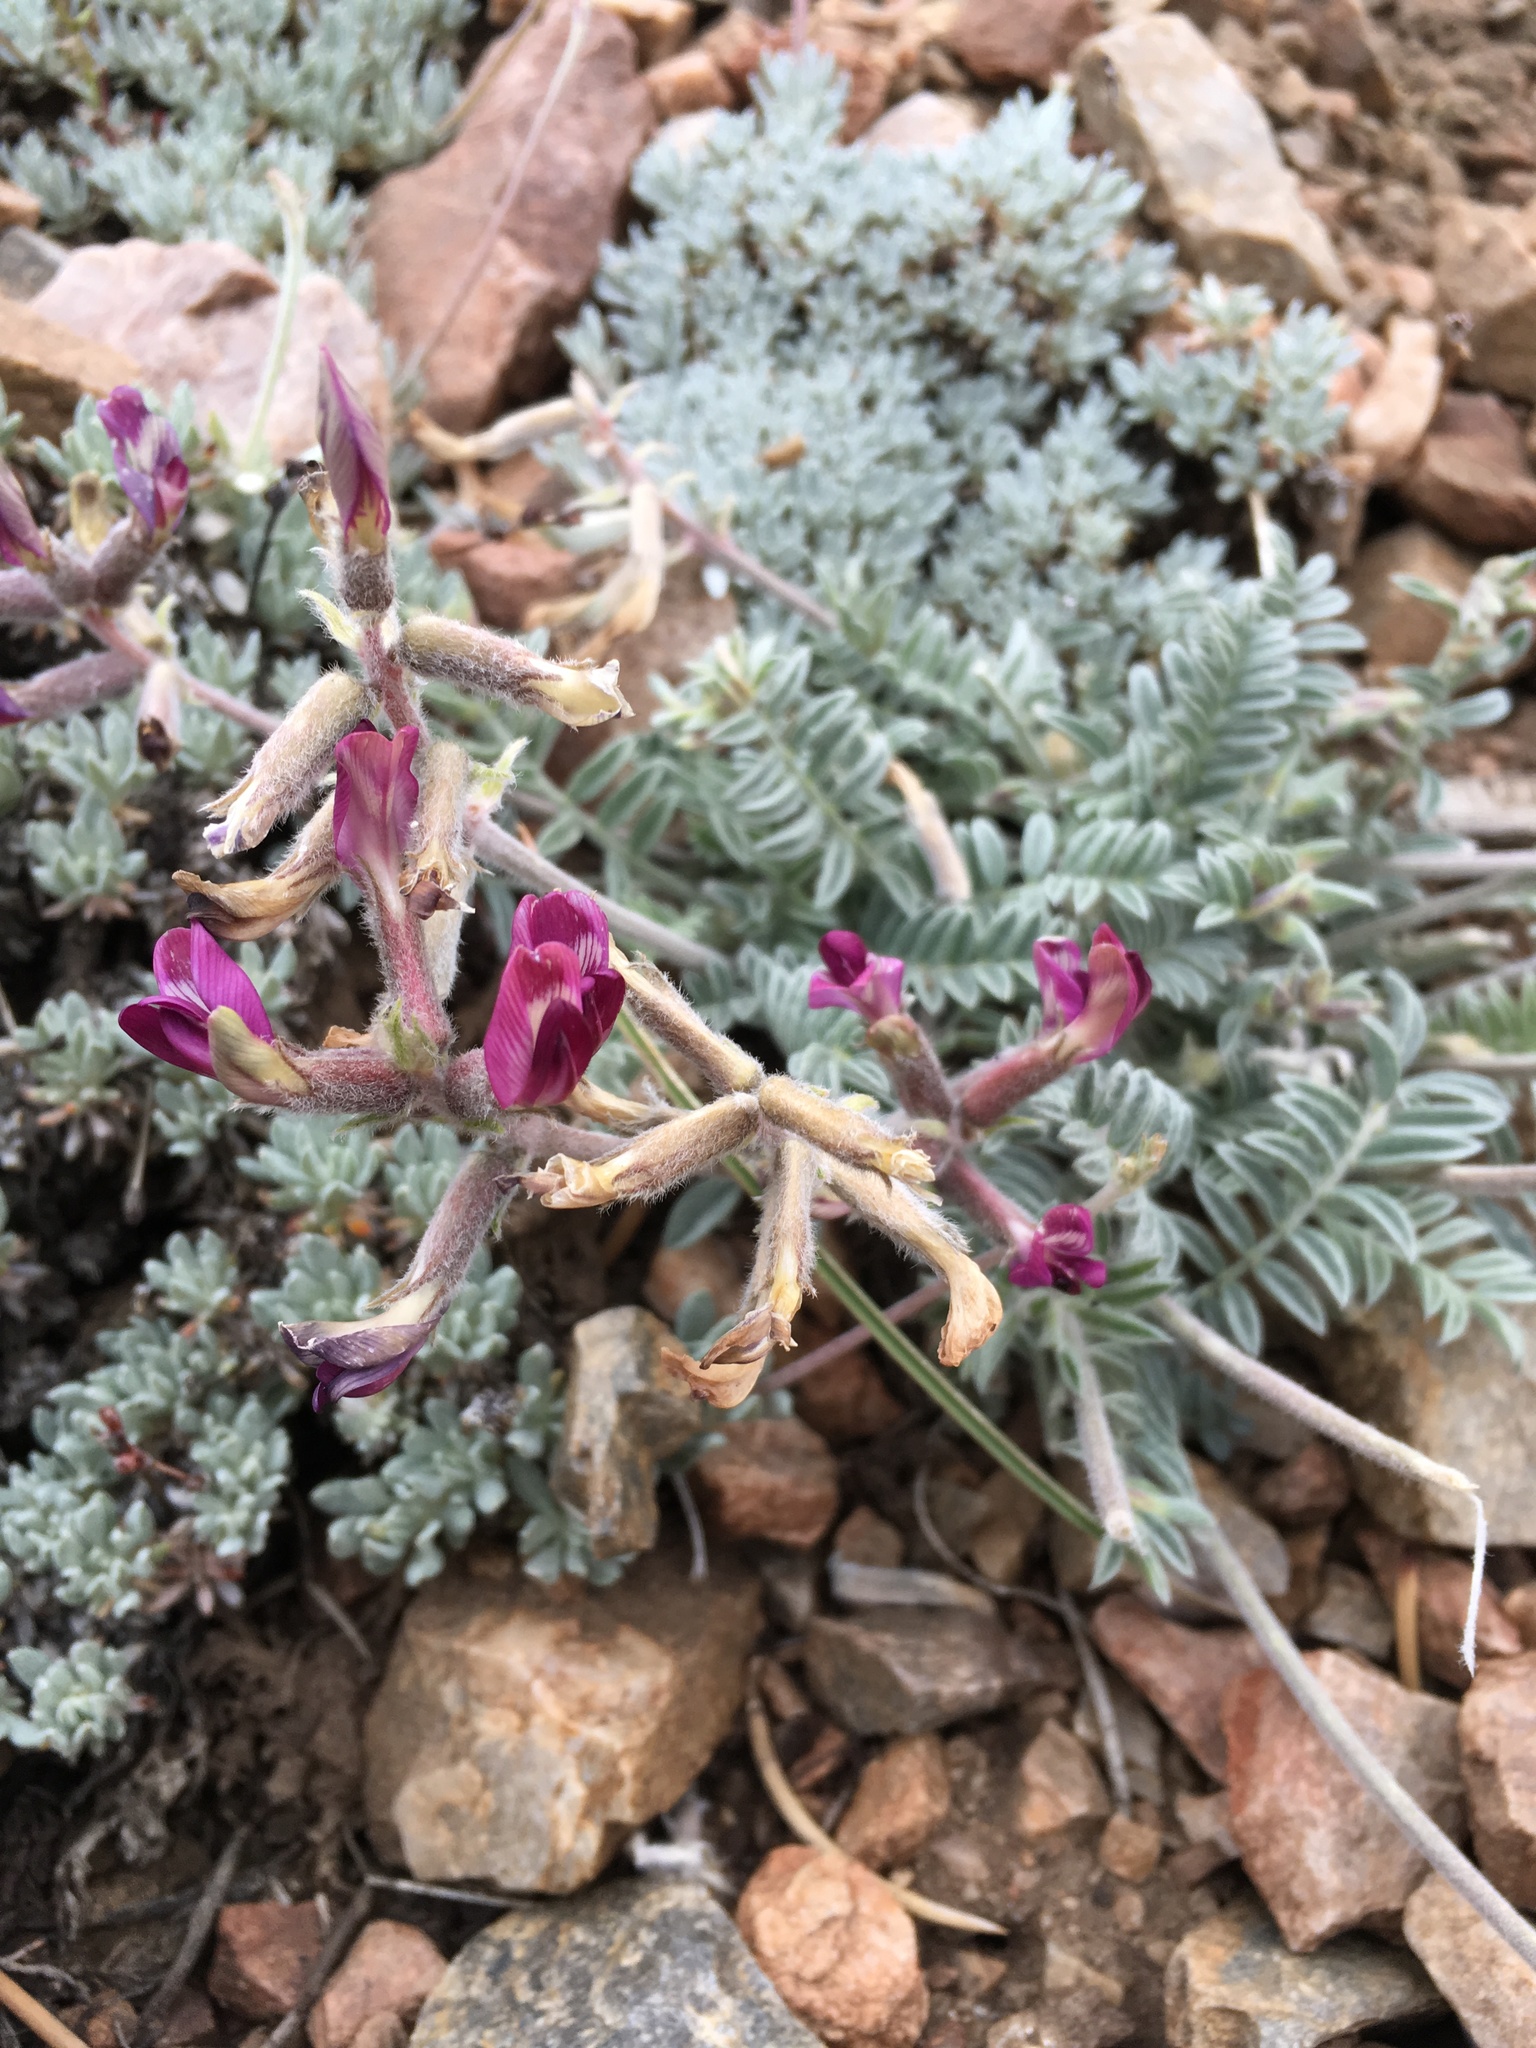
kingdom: Plantae
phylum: Tracheophyta
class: Magnoliopsida
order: Fabales
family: Fabaceae
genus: Astragalus
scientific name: Astragalus leucolobus
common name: Big bear valley woollypod
